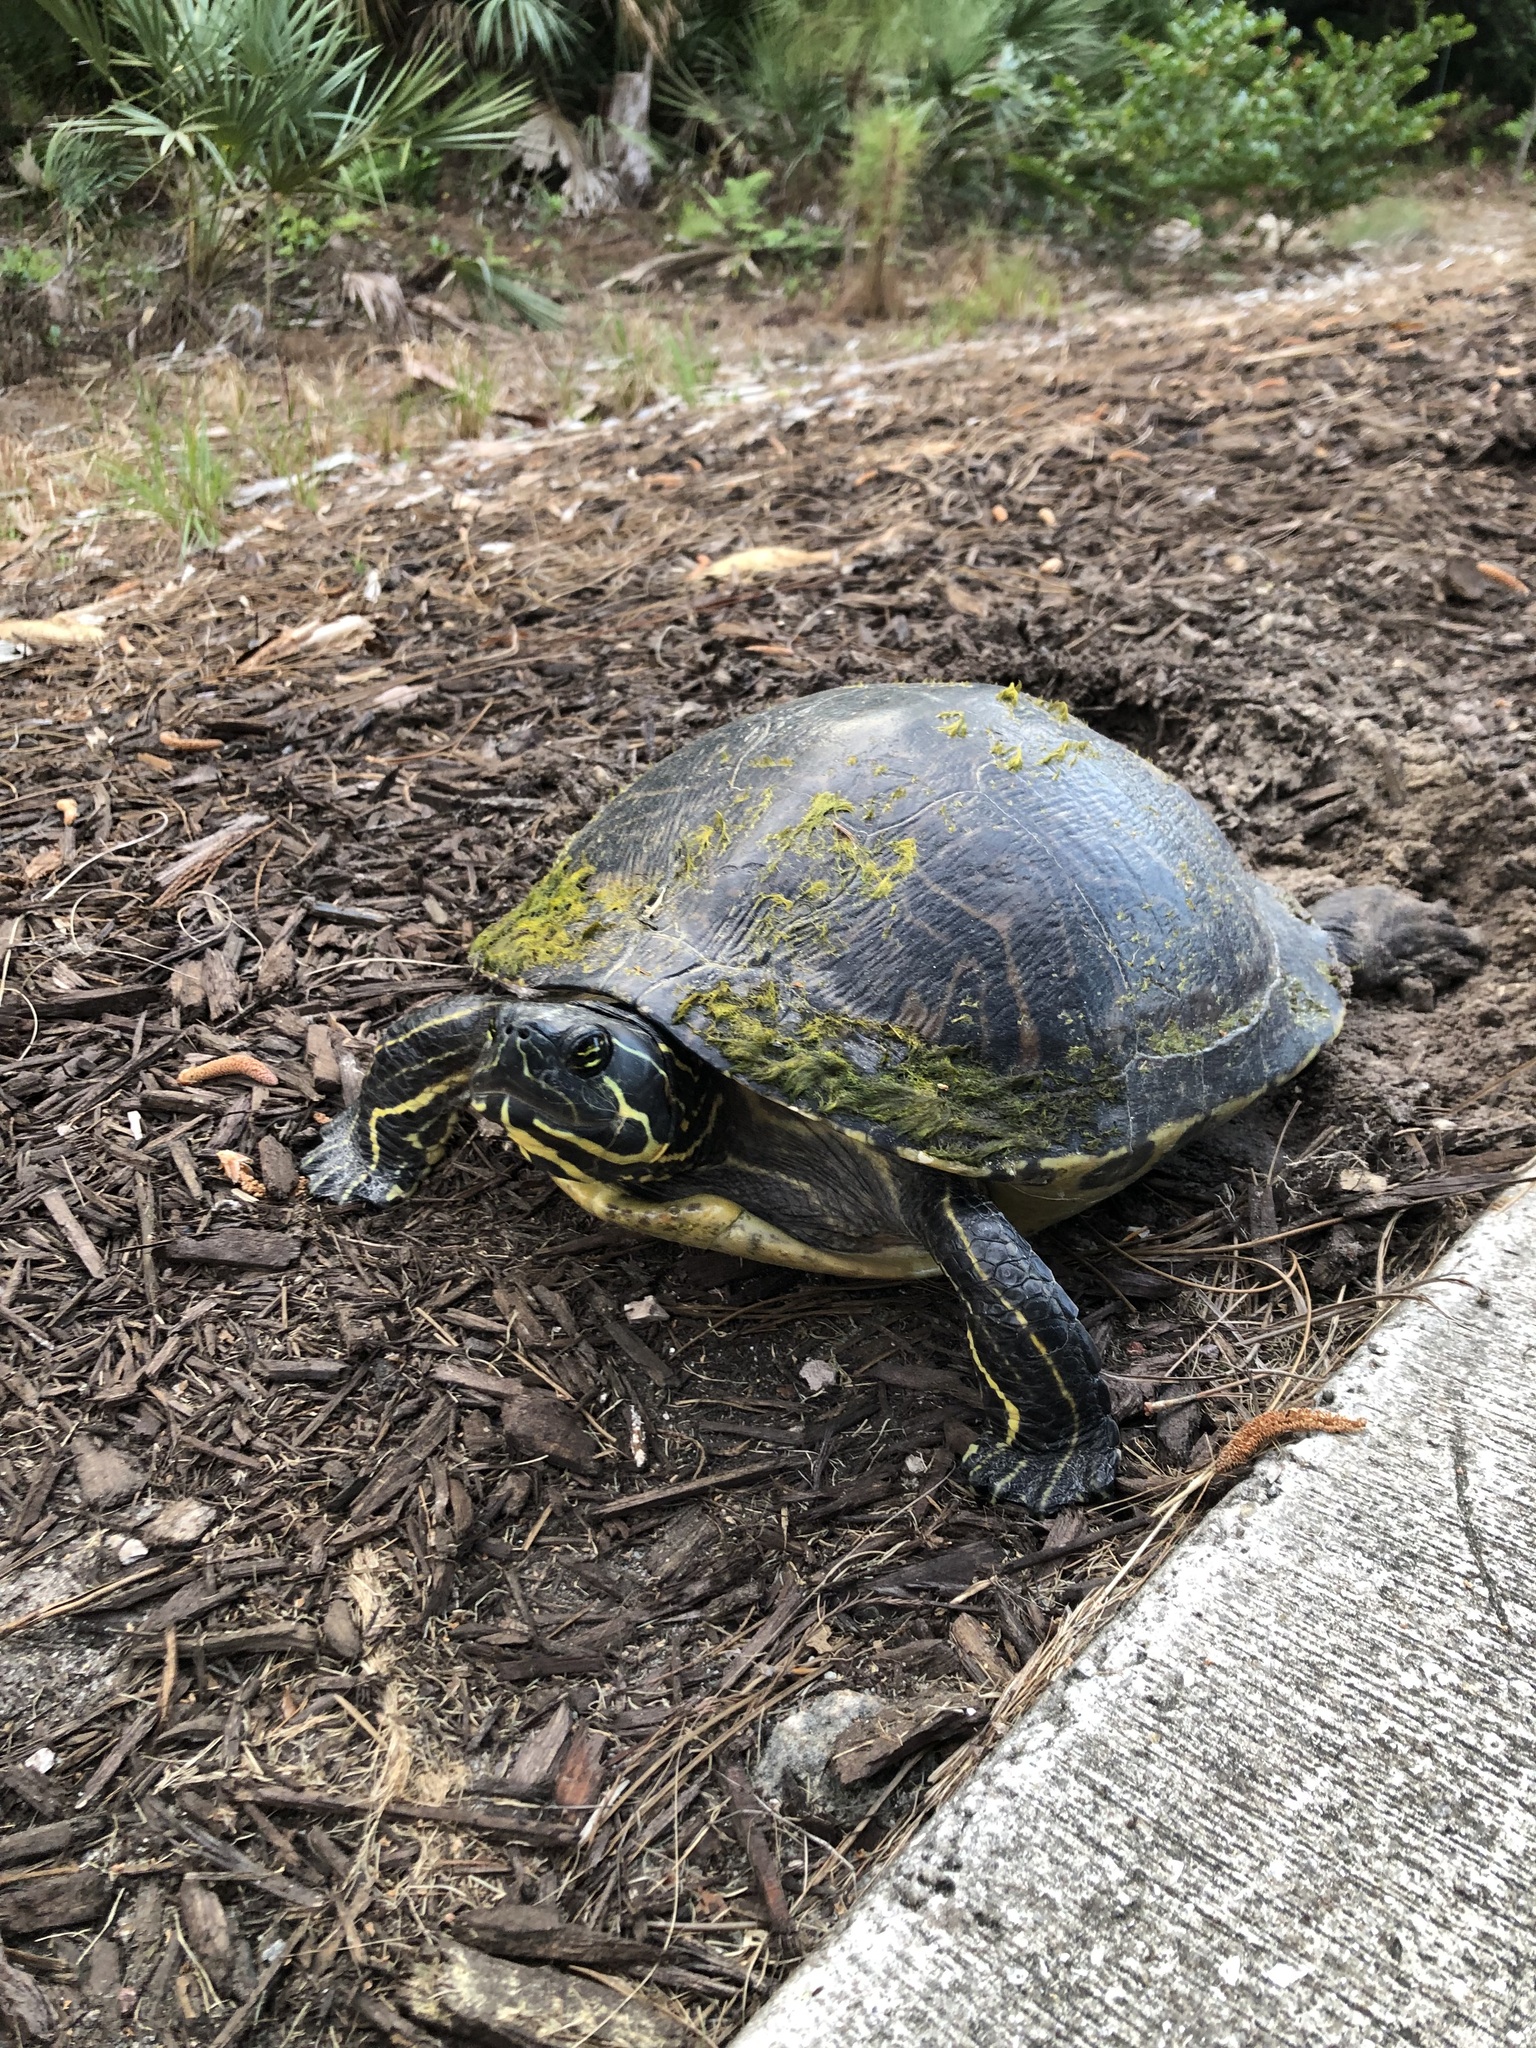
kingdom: Animalia
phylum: Chordata
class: Testudines
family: Emydidae
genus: Pseudemys
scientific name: Pseudemys peninsularis
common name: Peninsula cooter
